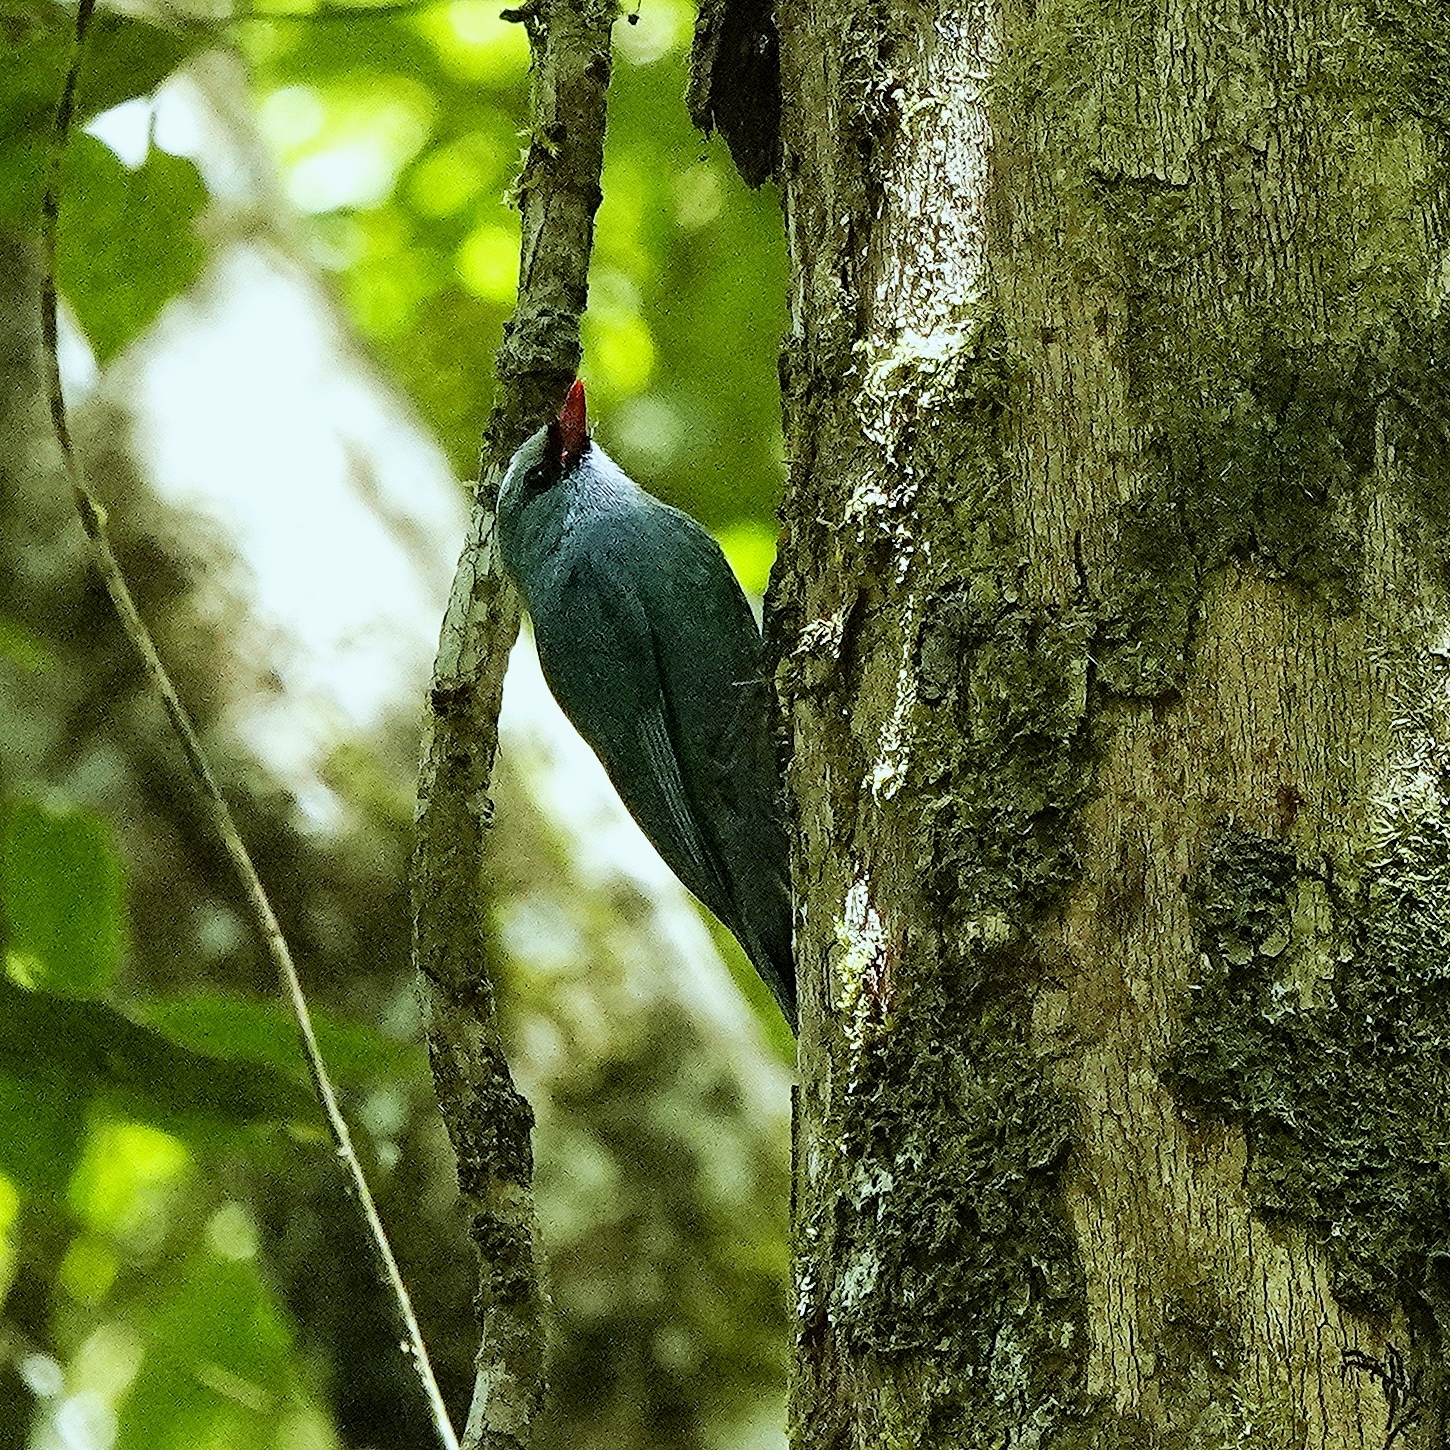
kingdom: Animalia
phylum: Chordata
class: Aves
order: Passeriformes
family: Vangidae
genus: Hypositta
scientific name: Hypositta corallirostris
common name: Nuthatch vanga
